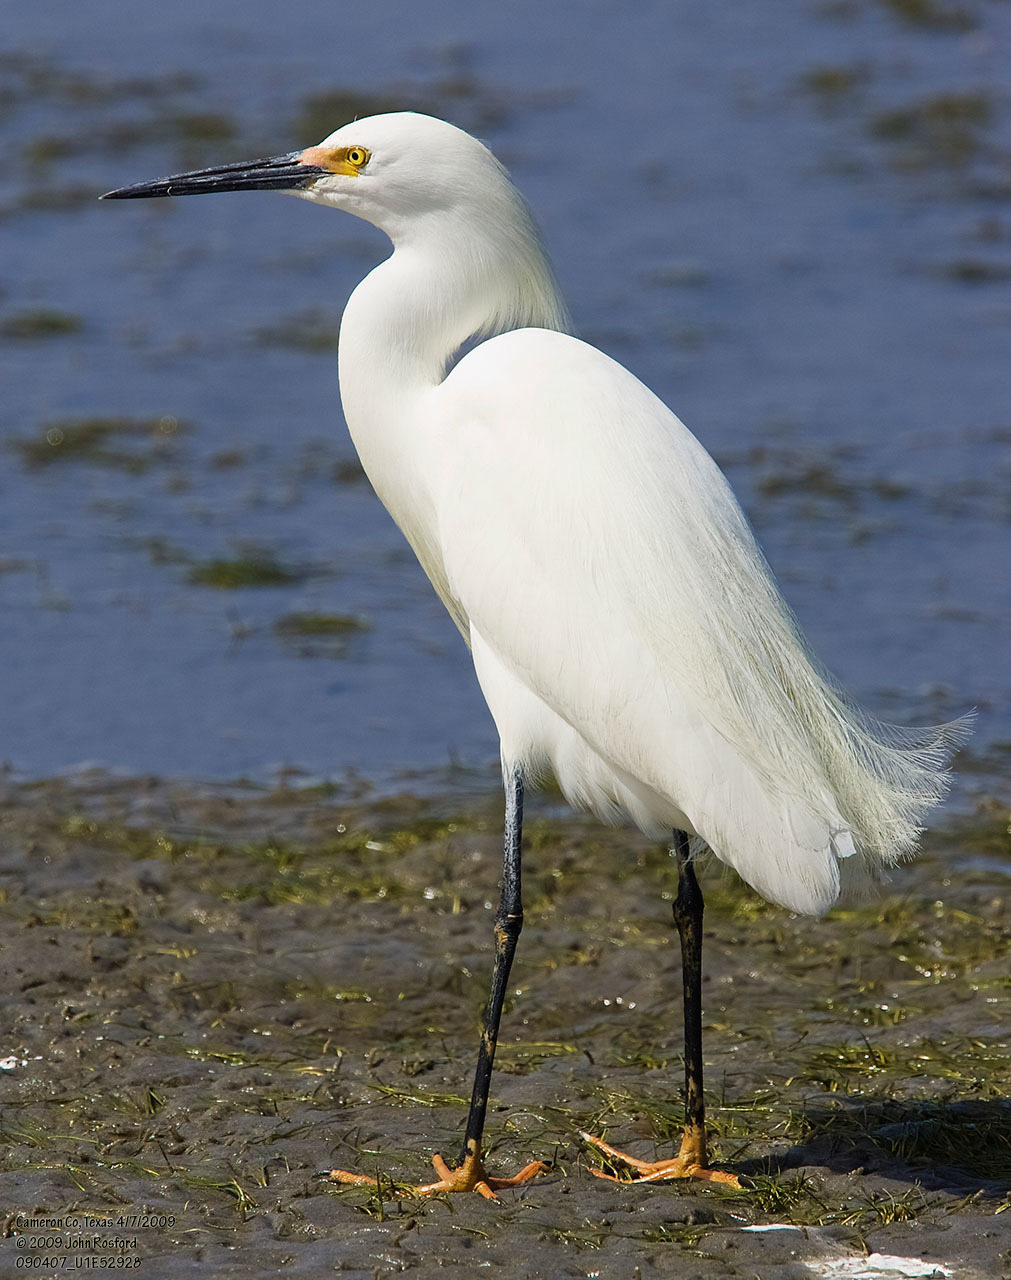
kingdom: Animalia
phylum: Chordata
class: Aves
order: Pelecaniformes
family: Ardeidae
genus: Egretta
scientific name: Egretta thula
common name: Snowy egret
